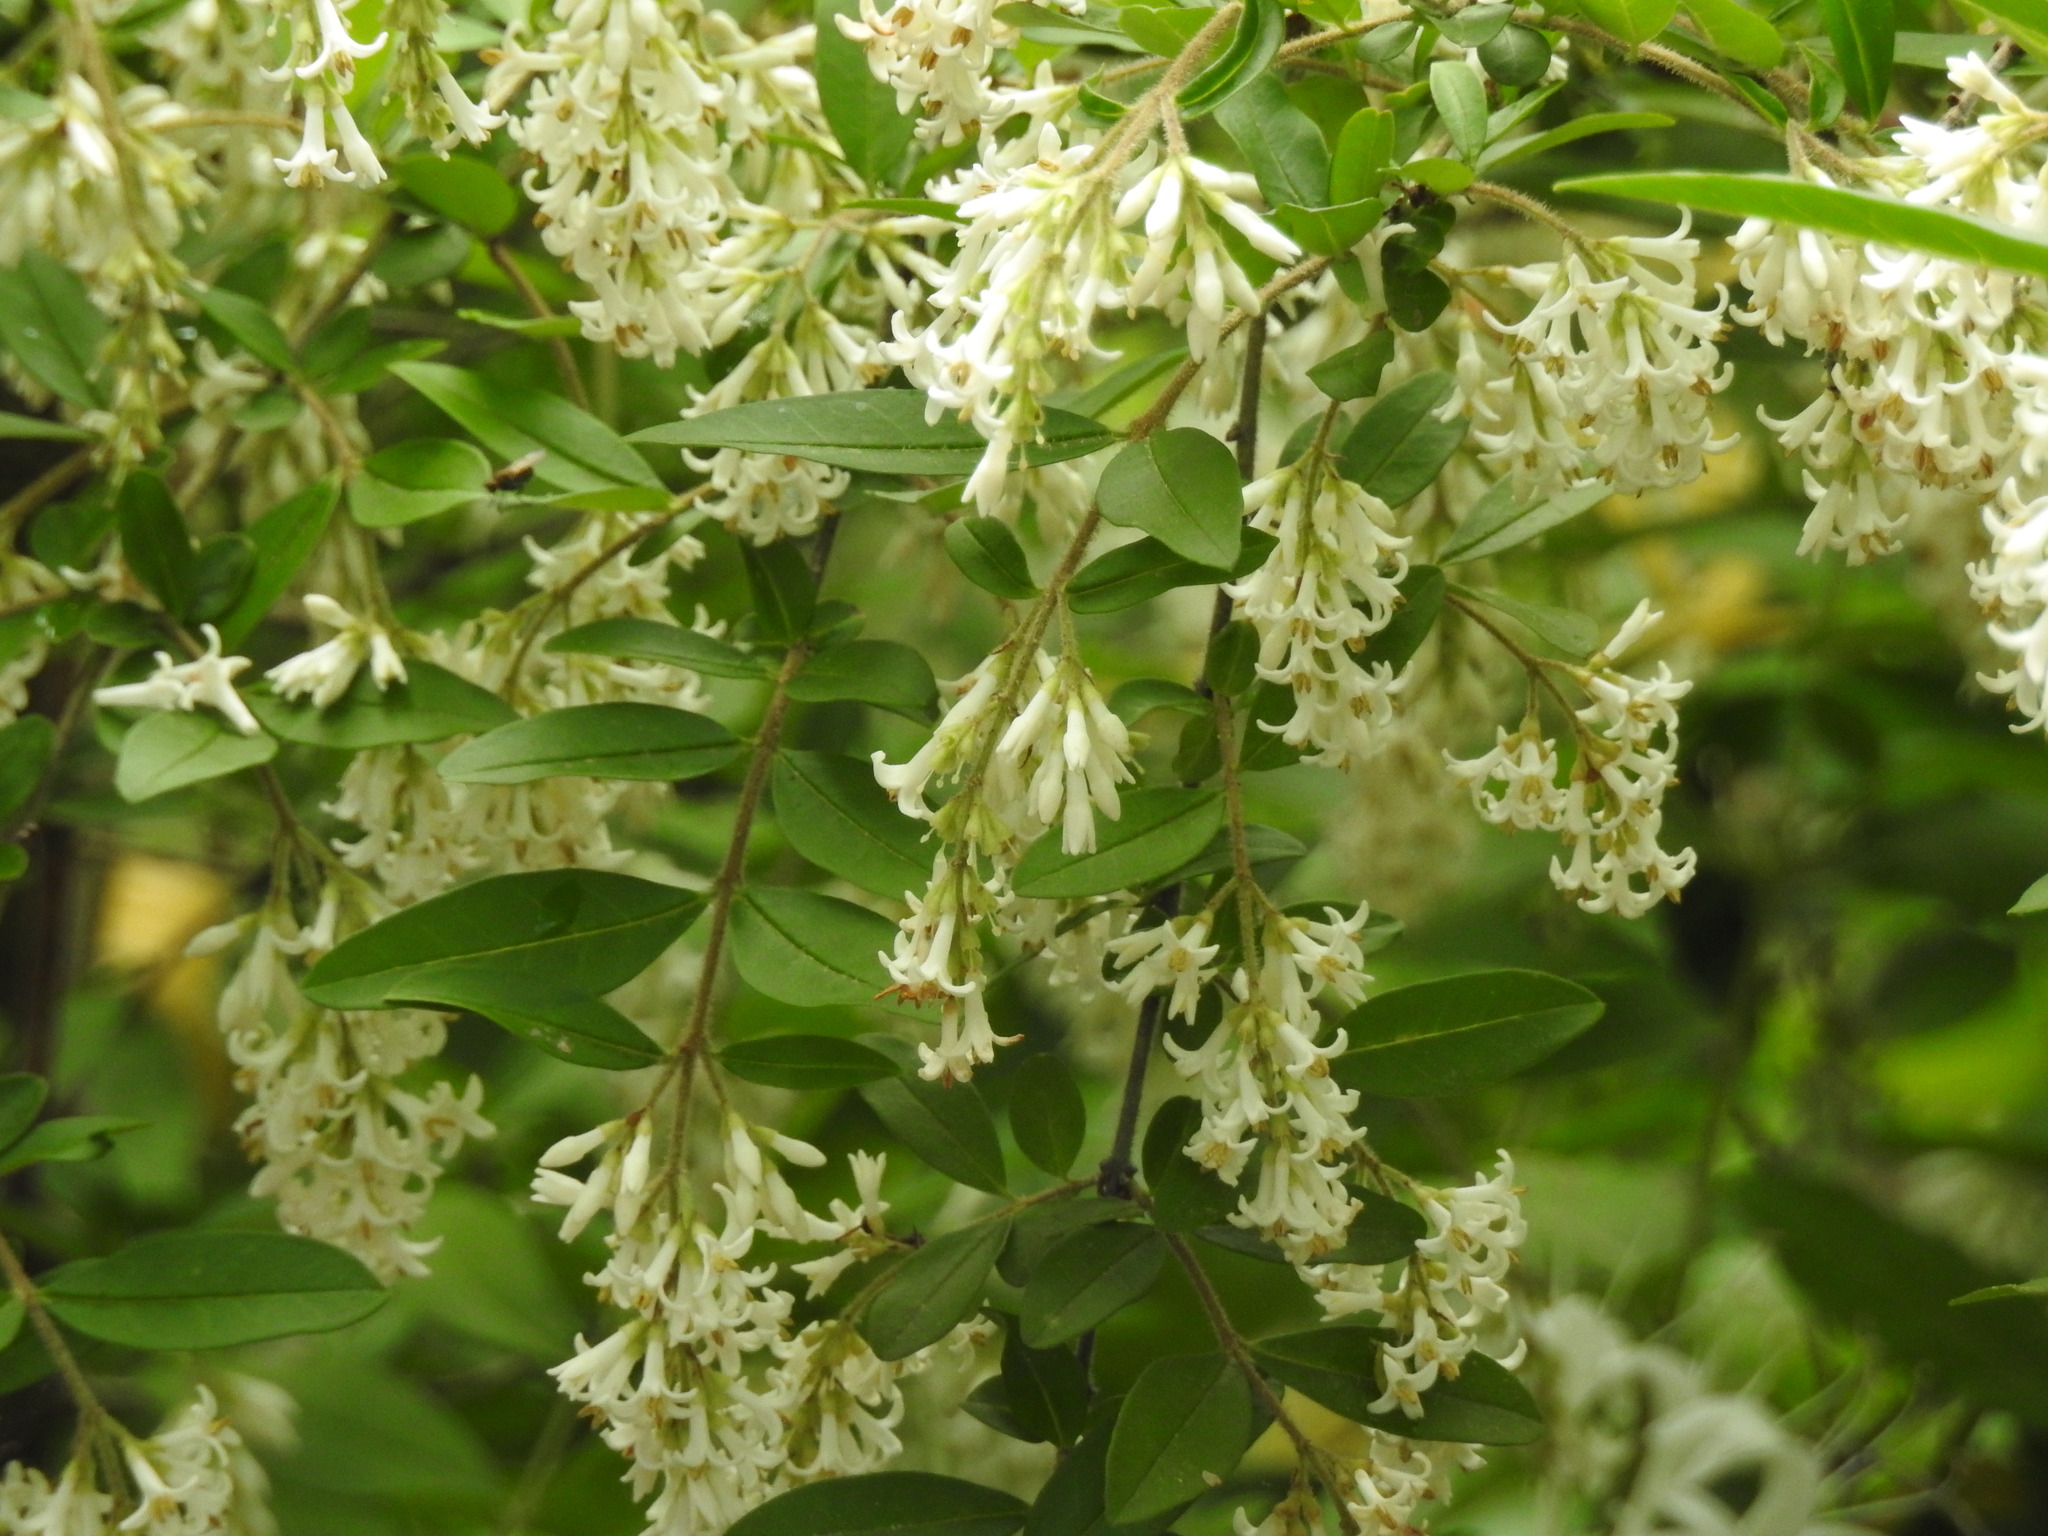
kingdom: Plantae
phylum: Tracheophyta
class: Magnoliopsida
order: Lamiales
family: Oleaceae
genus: Ligustrum
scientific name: Ligustrum obtusifolium
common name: Border privet
